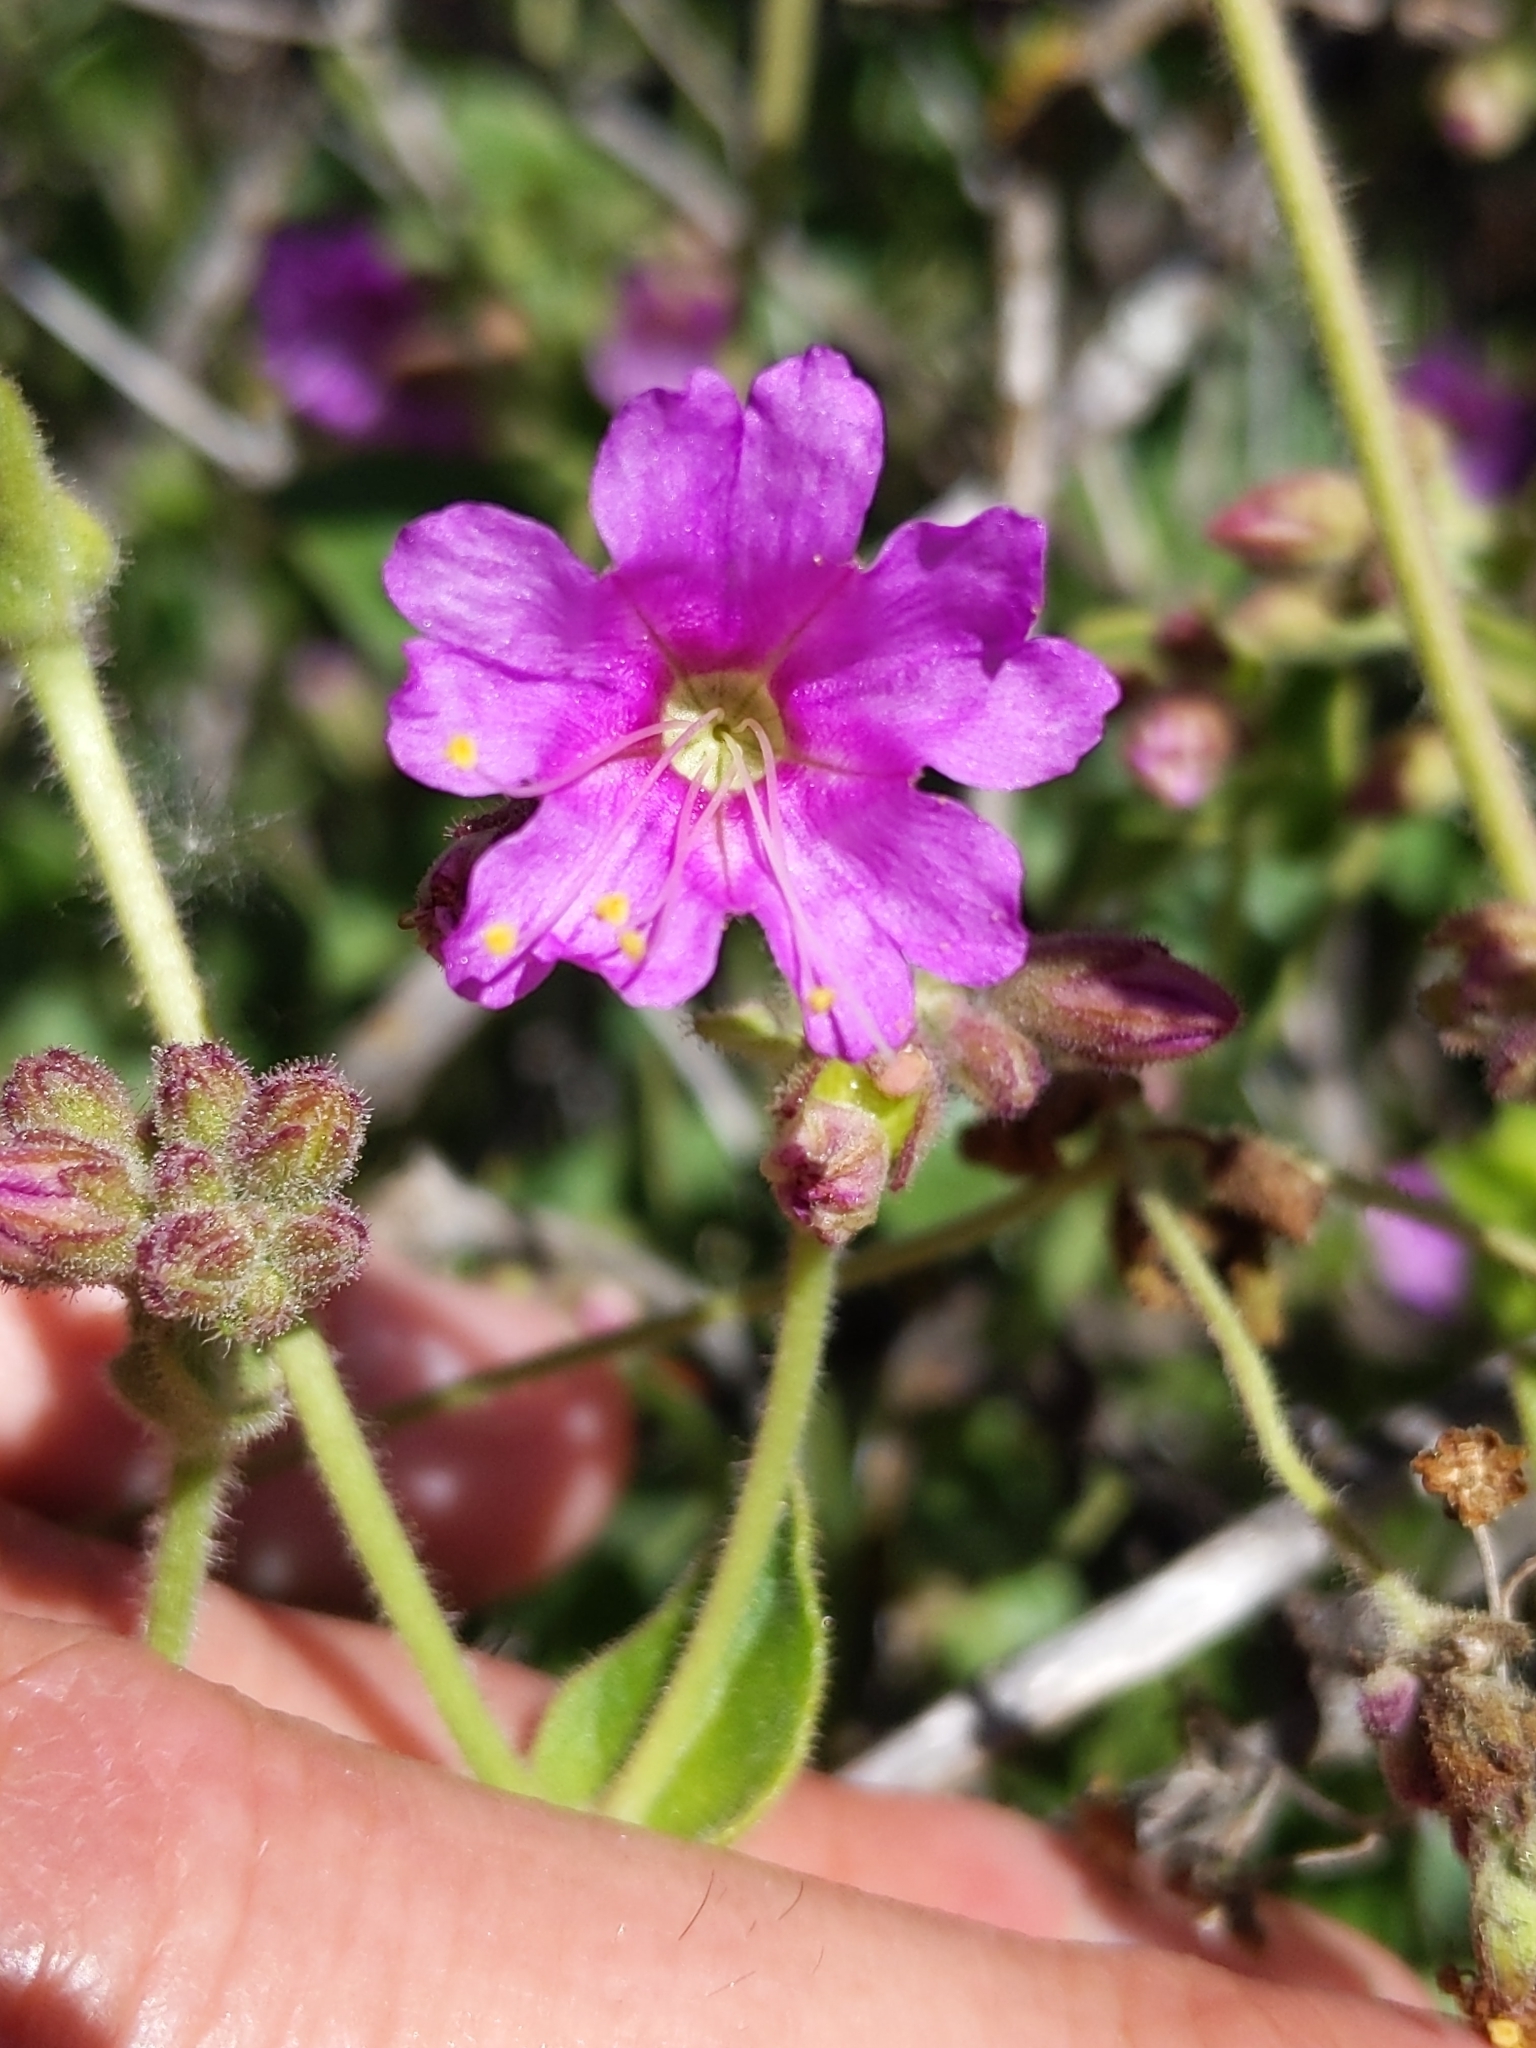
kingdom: Plantae
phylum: Tracheophyta
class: Magnoliopsida
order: Caryophyllales
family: Nyctaginaceae
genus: Mirabilis
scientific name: Mirabilis laevis
